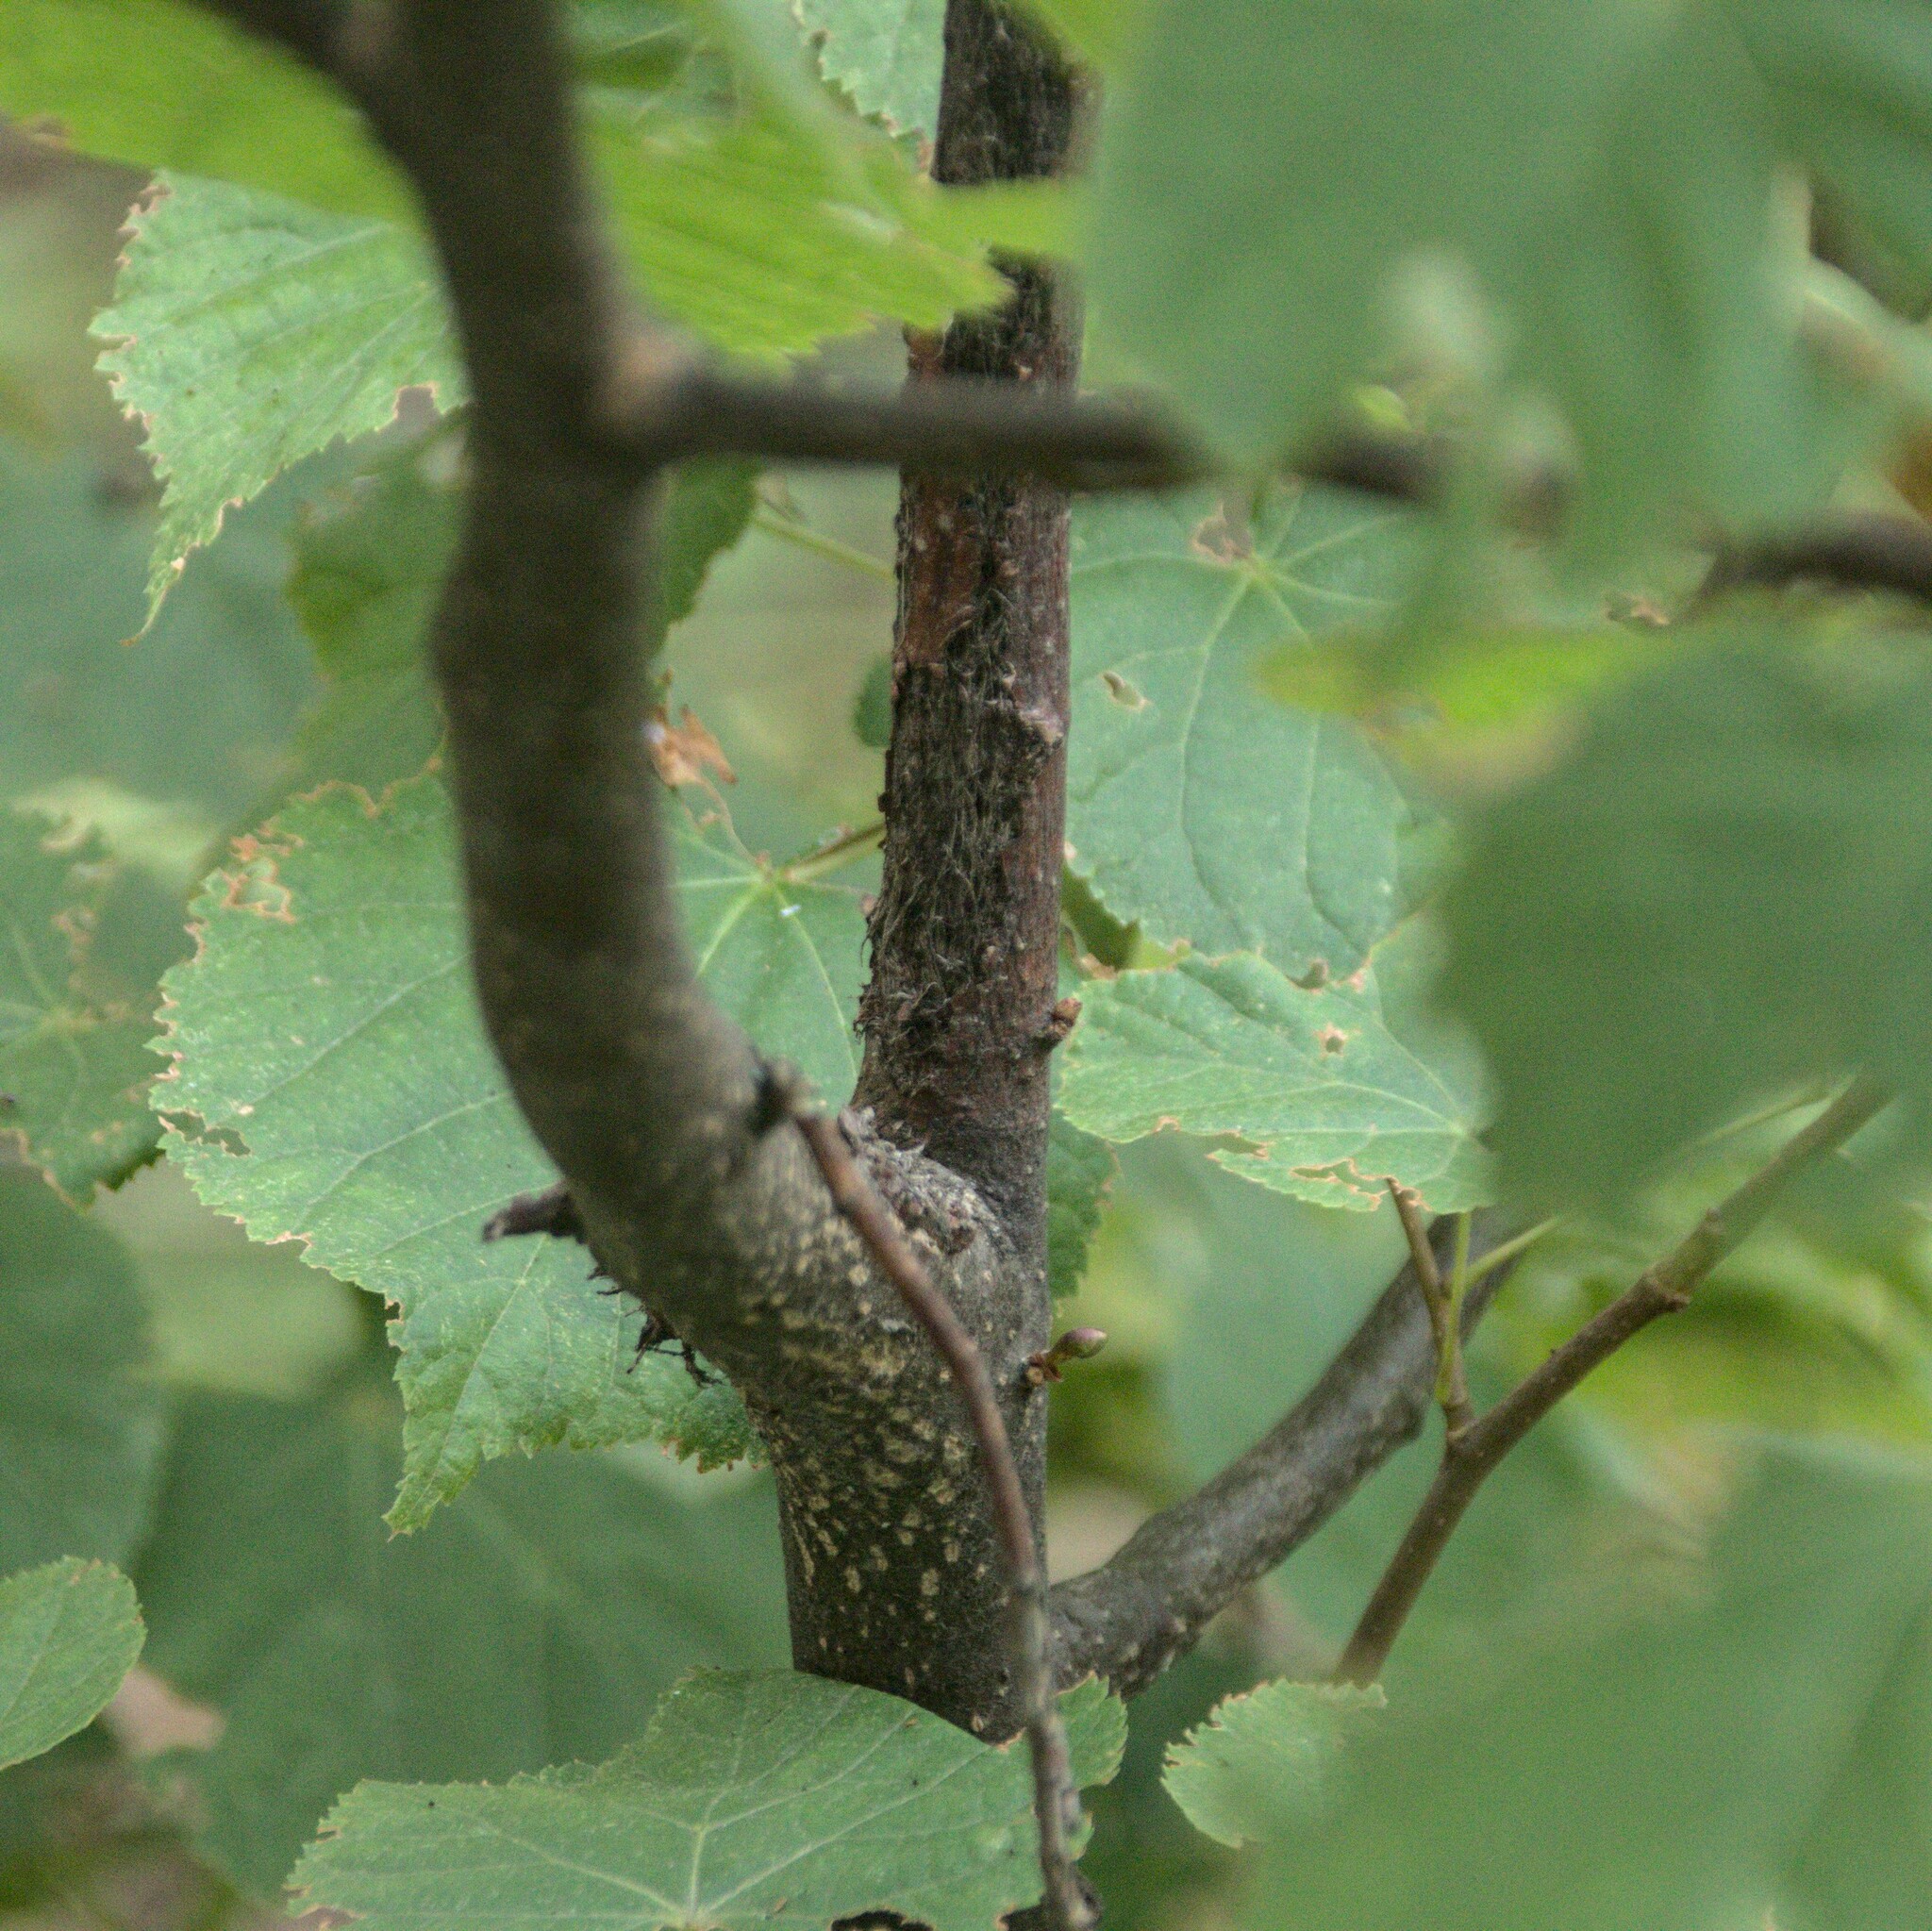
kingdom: Plantae
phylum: Tracheophyta
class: Magnoliopsida
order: Malvales
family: Malvaceae
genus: Tilia
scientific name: Tilia cordata
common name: Small-leaved lime
